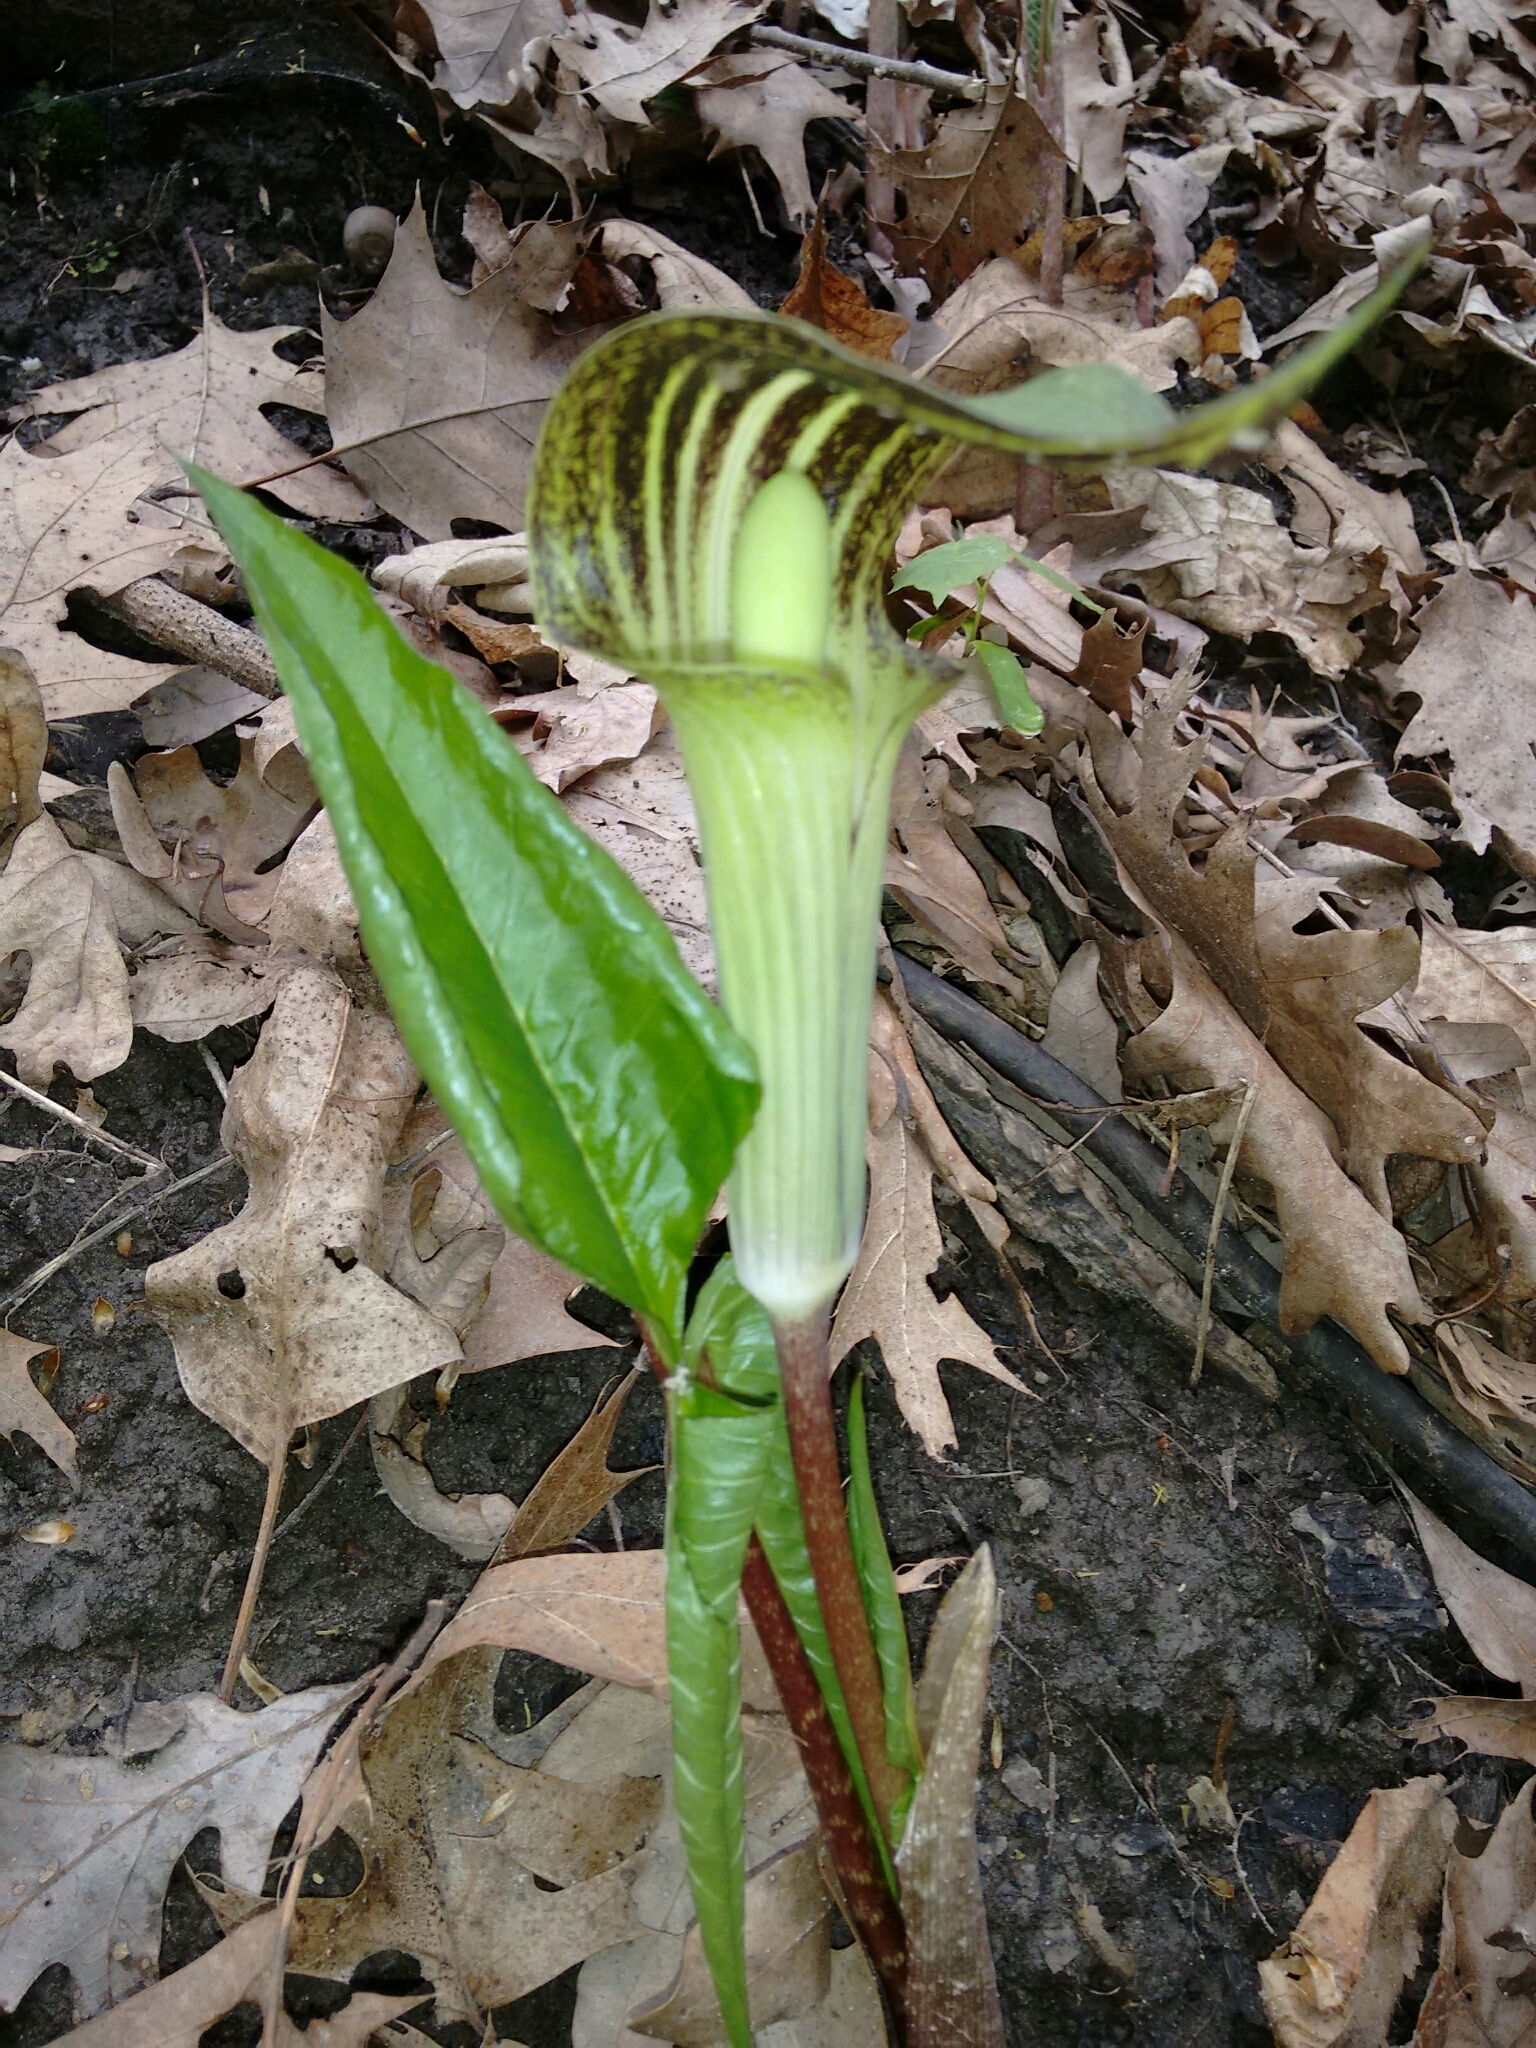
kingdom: Plantae
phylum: Tracheophyta
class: Liliopsida
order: Alismatales
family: Araceae
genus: Arisaema
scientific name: Arisaema triphyllum
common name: Jack-in-the-pulpit
